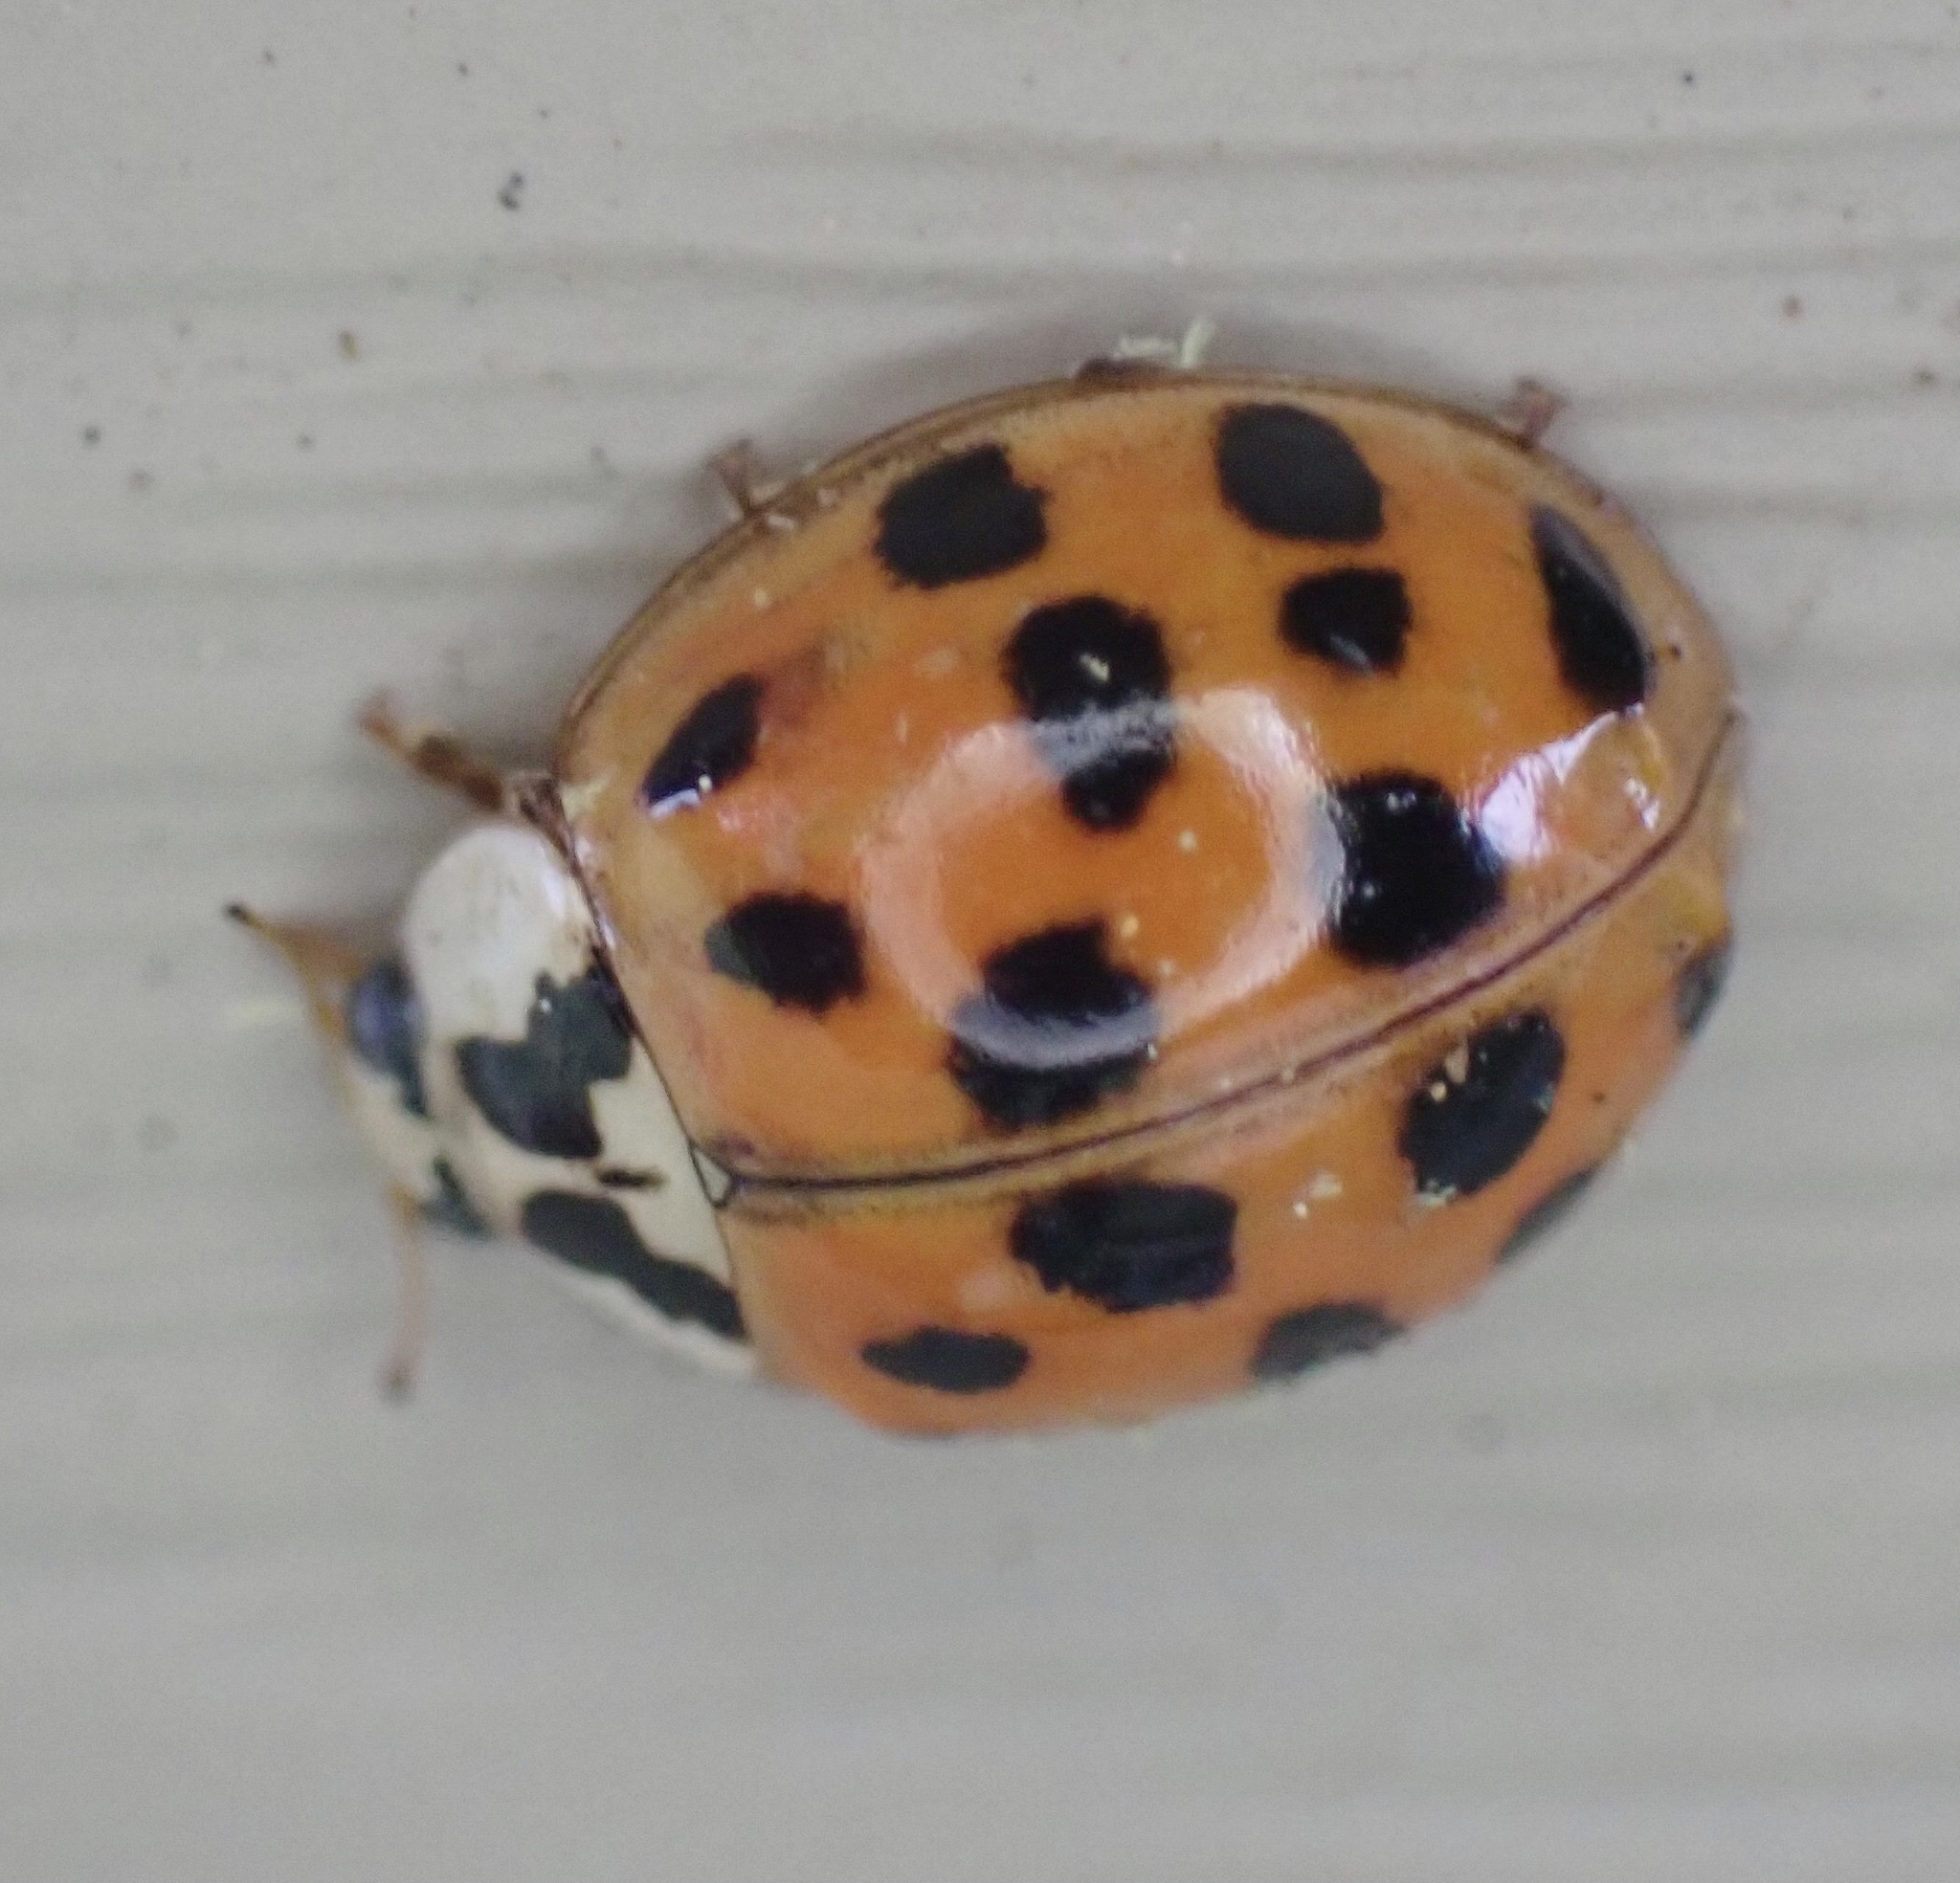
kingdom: Animalia
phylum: Arthropoda
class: Insecta
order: Coleoptera
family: Coccinellidae
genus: Harmonia
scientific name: Harmonia axyridis
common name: Harlequin ladybird
